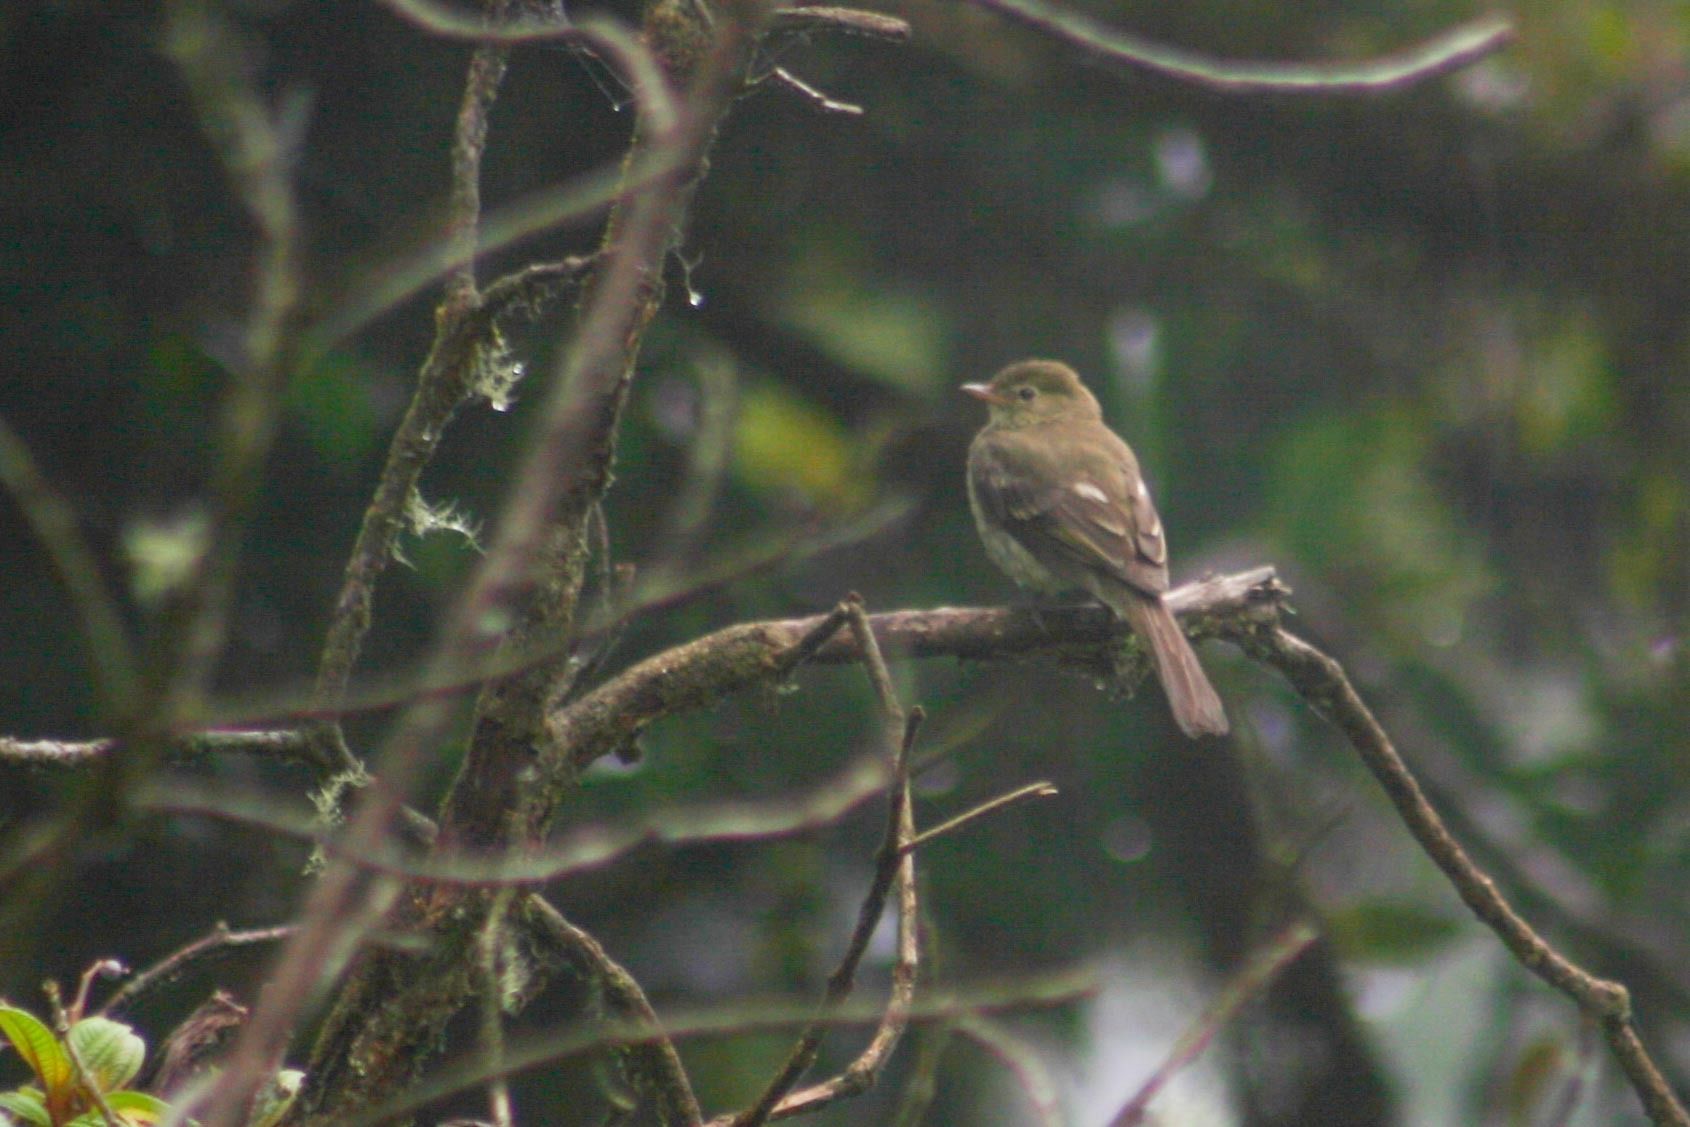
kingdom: Animalia
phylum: Chordata
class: Aves
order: Passeriformes
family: Tyrannidae
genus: Elaenia
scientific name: Elaenia frantzii
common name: Mountain elaenia
